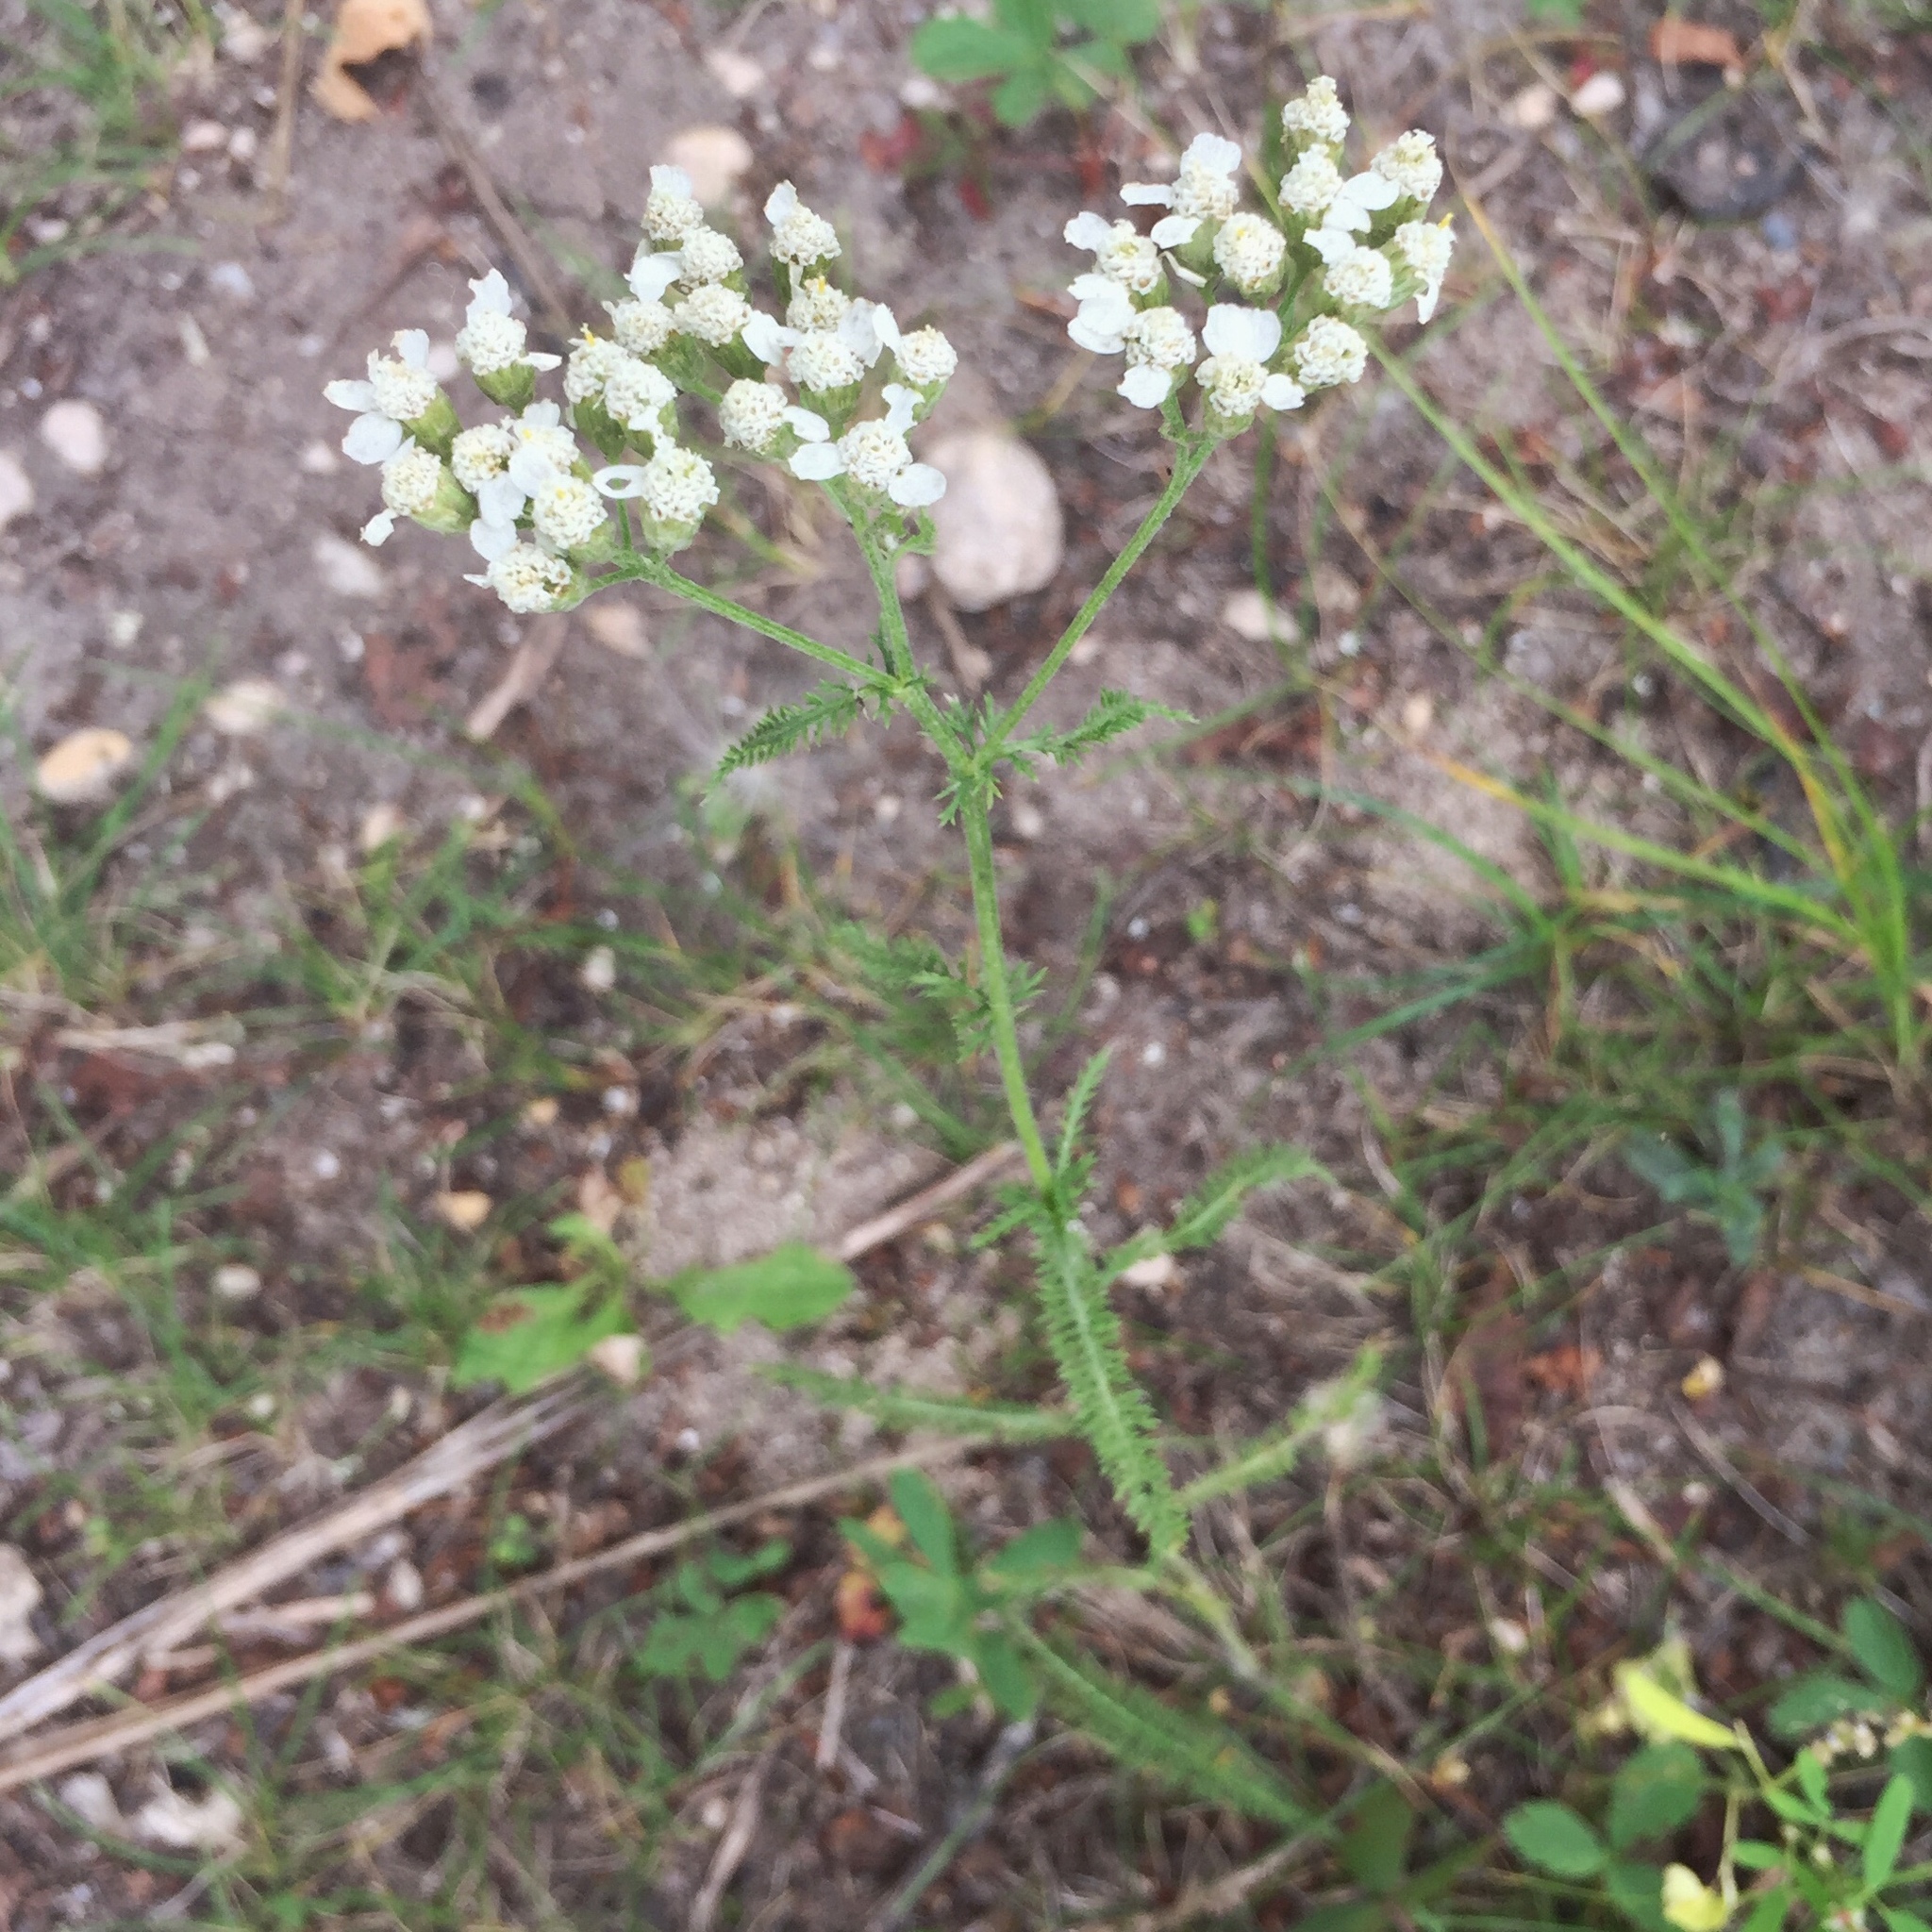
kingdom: Plantae
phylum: Tracheophyta
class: Magnoliopsida
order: Asterales
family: Asteraceae
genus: Achillea
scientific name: Achillea millefolium
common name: Yarrow
